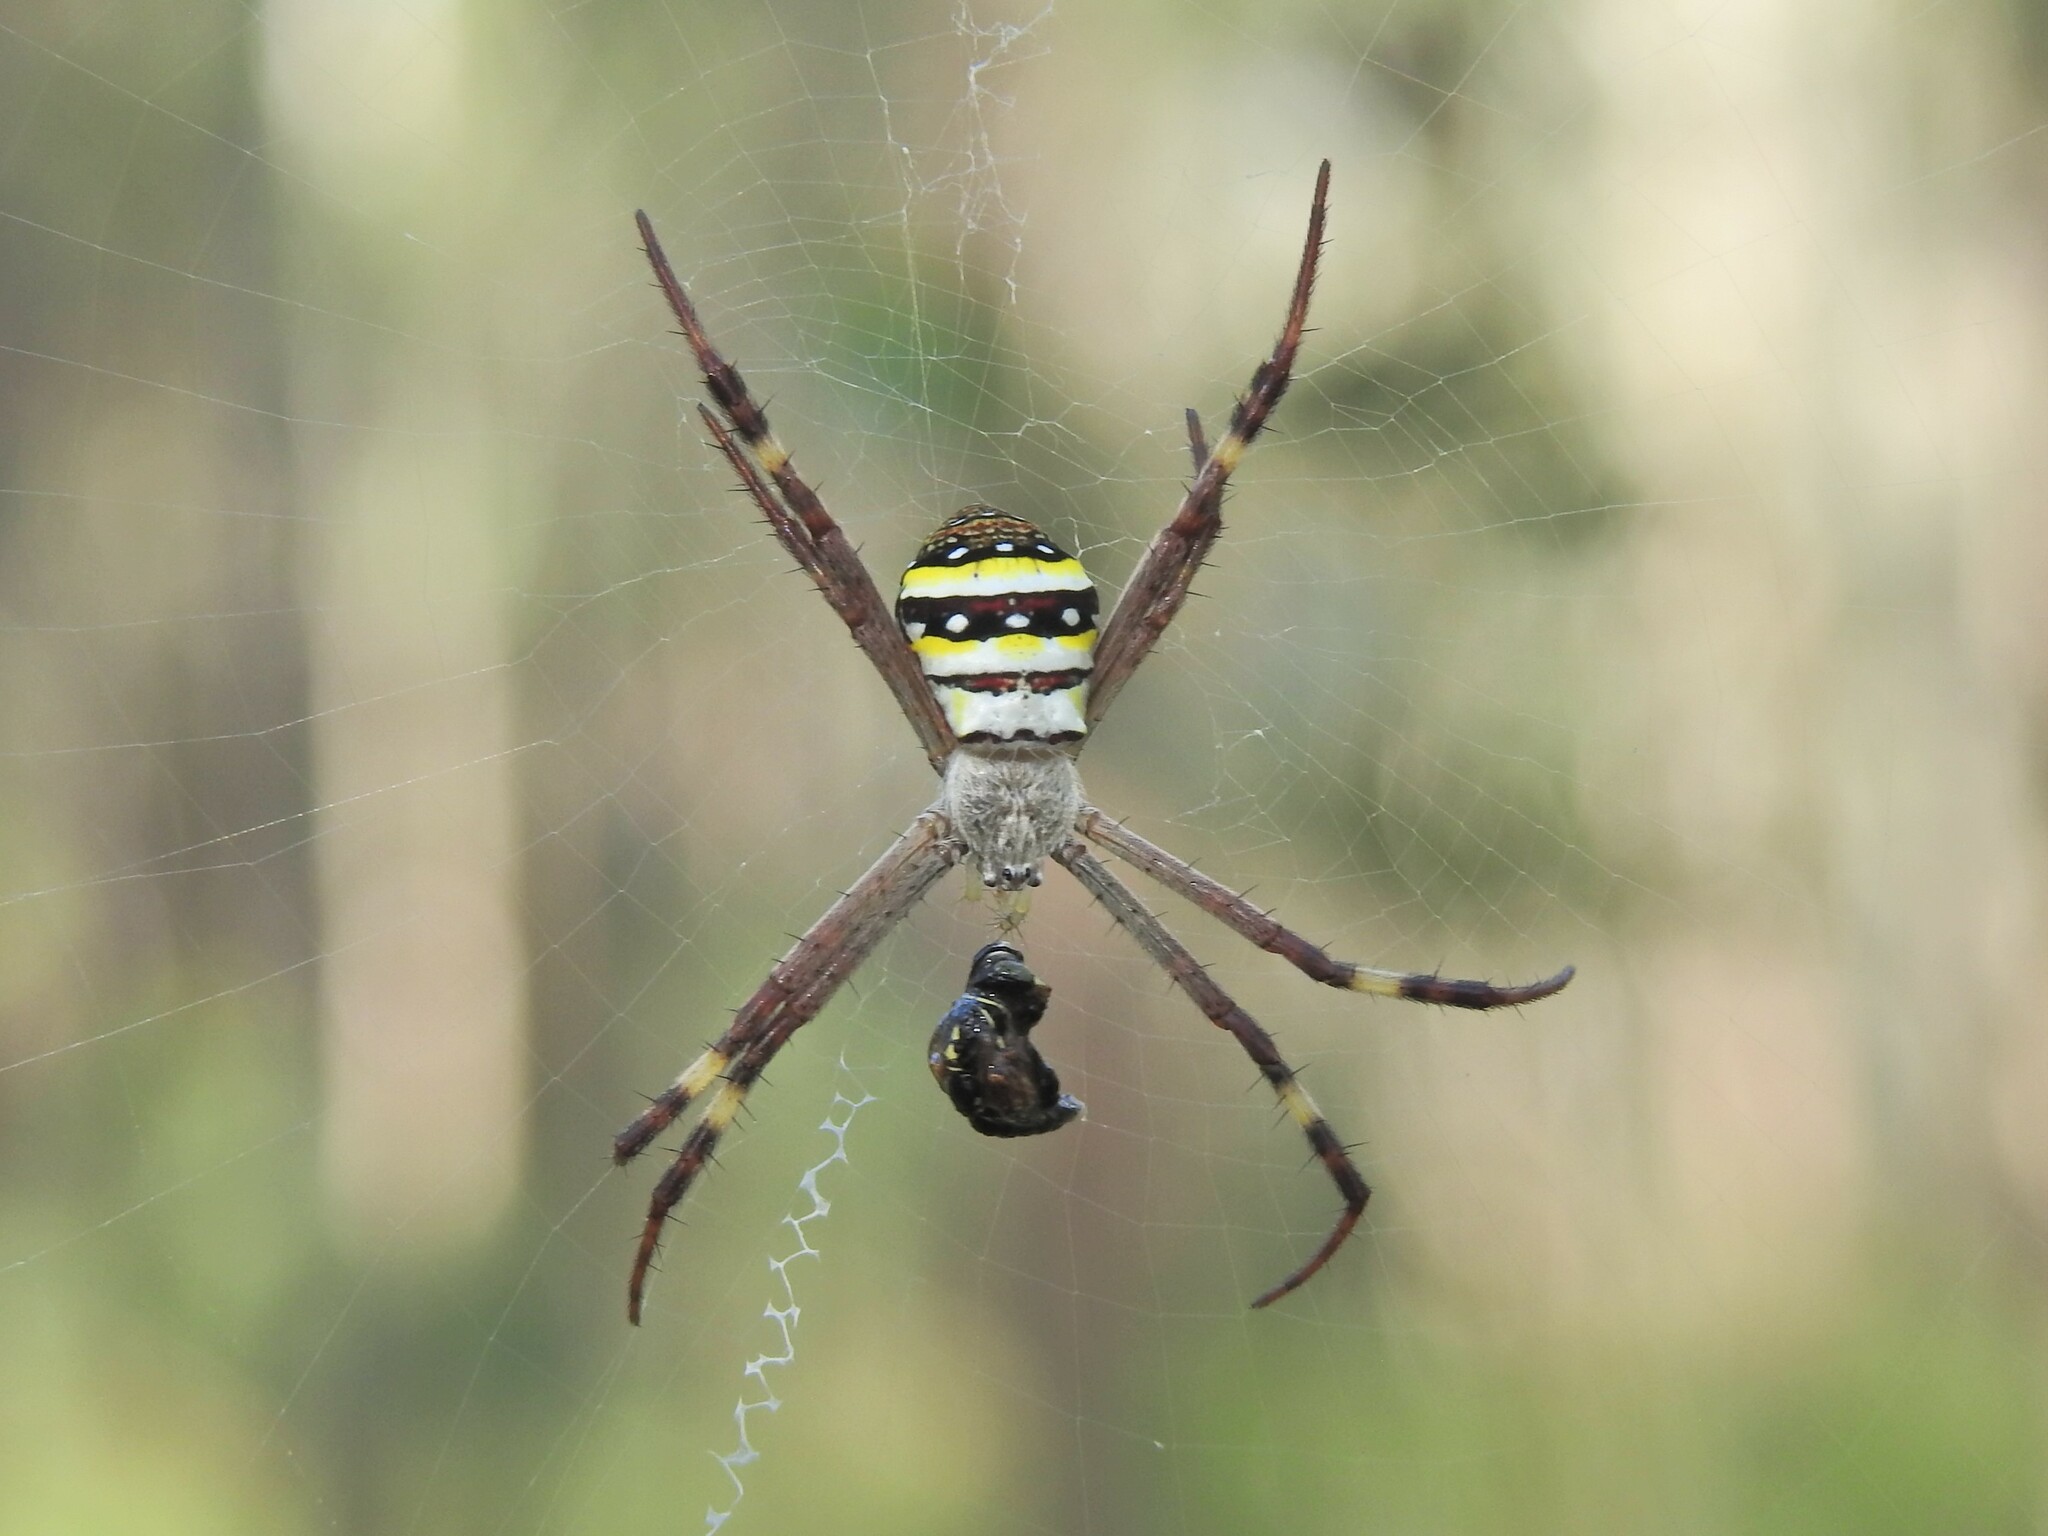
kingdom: Animalia
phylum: Arthropoda
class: Arachnida
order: Araneae
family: Araneidae
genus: Argiope
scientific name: Argiope keyserlingi
